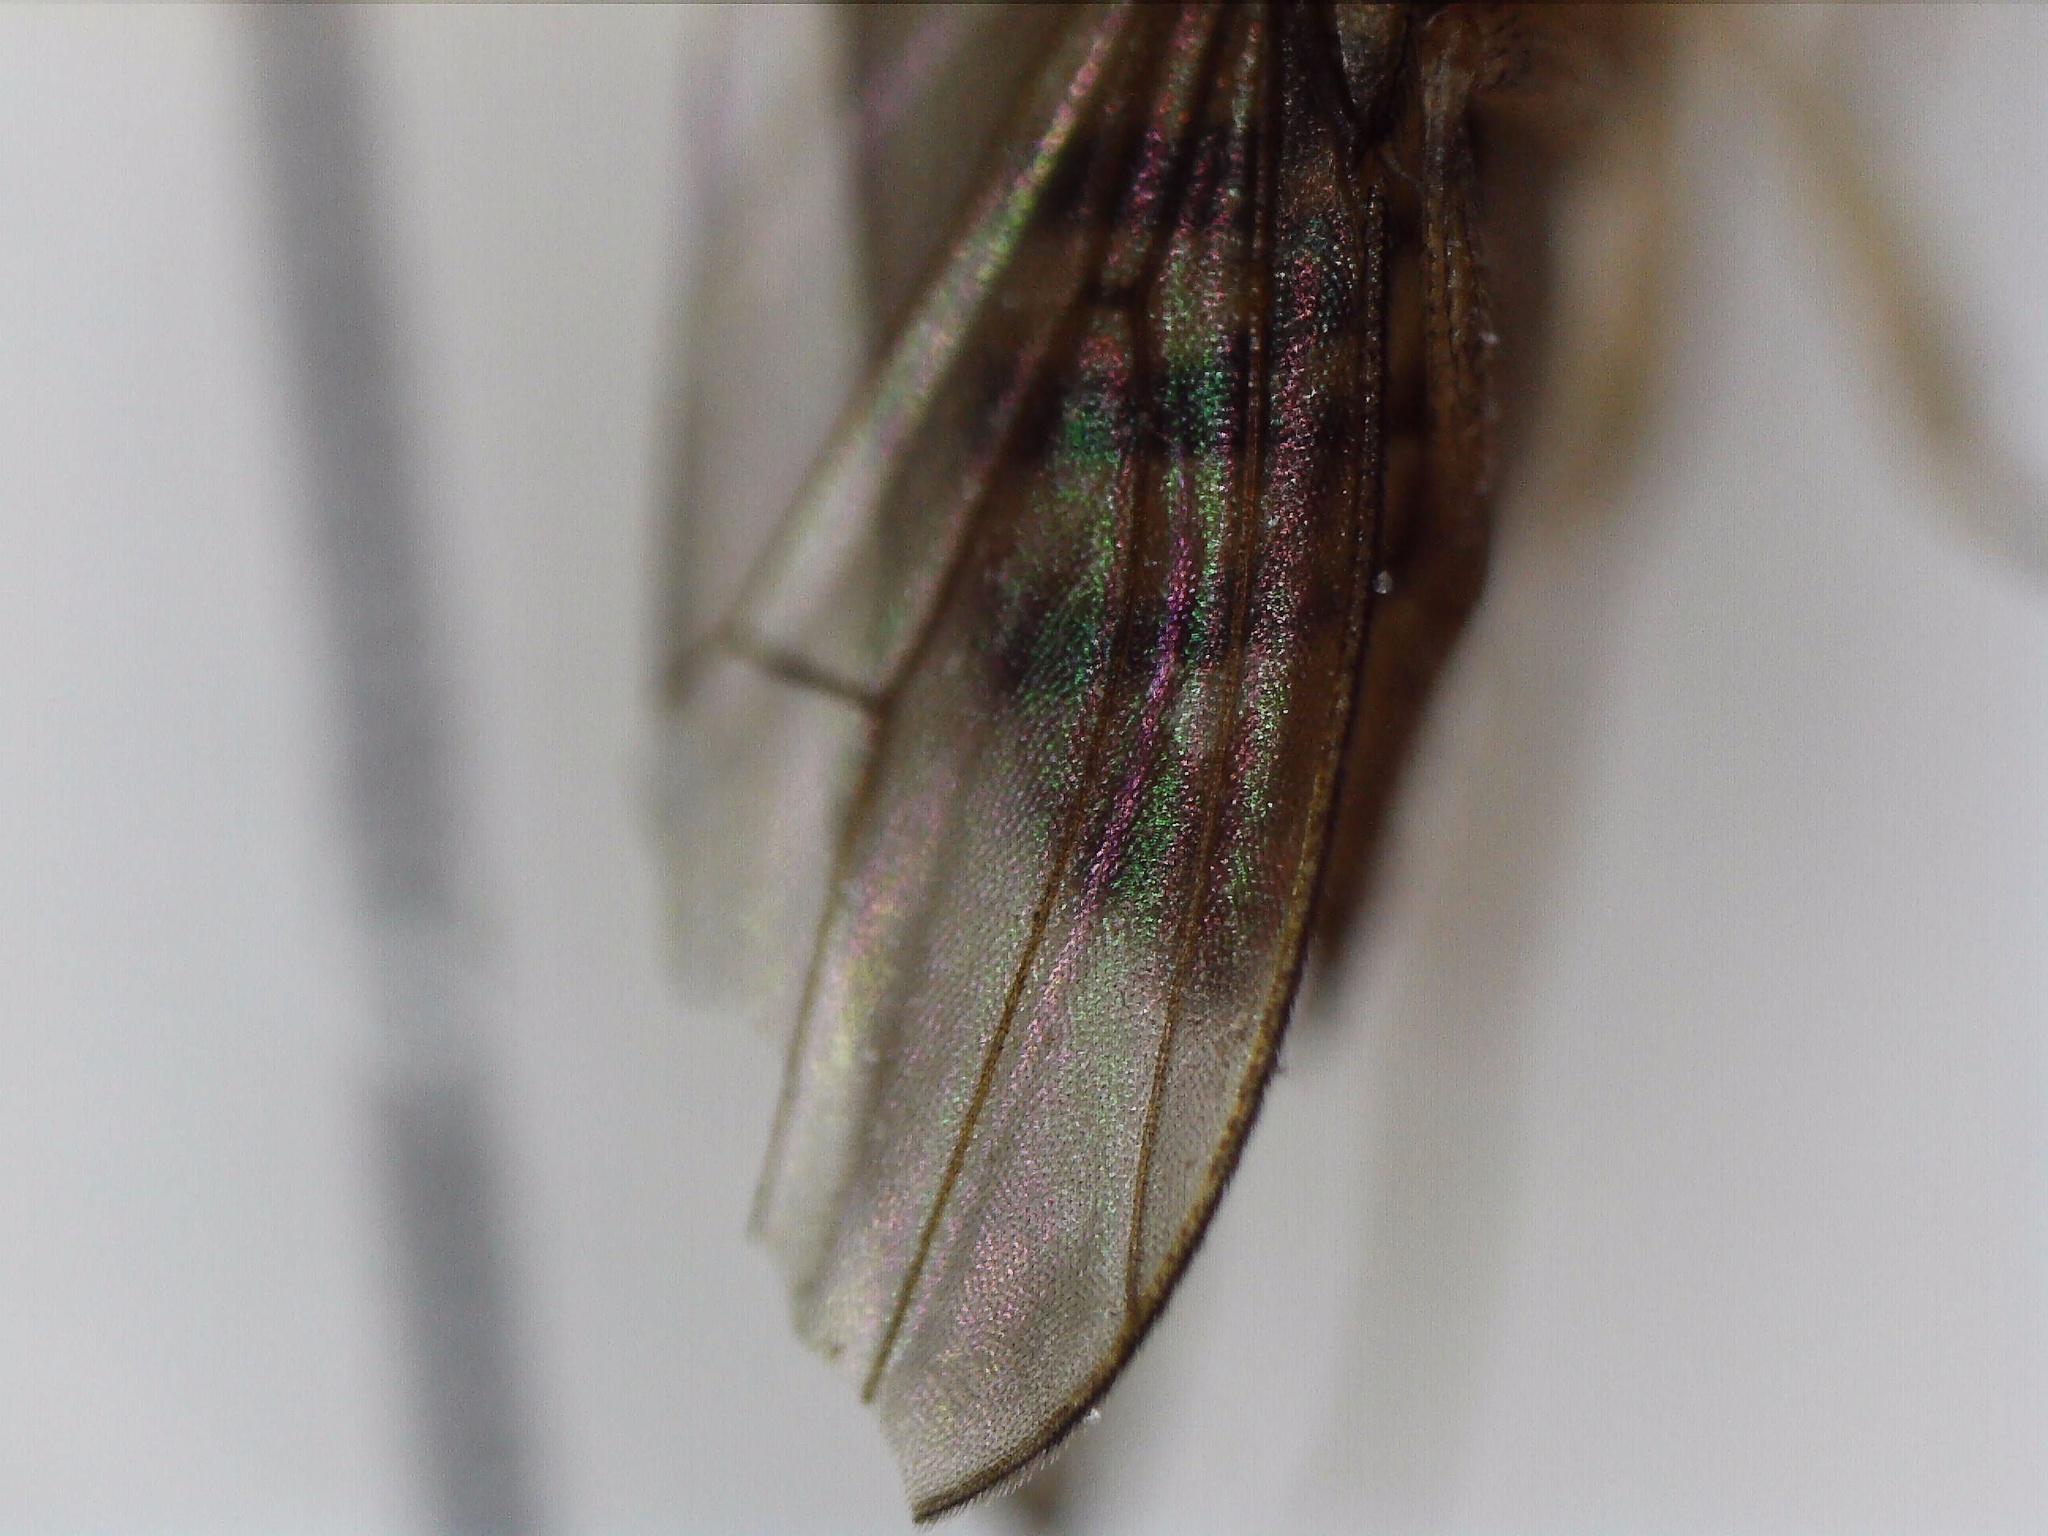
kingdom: Animalia
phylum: Arthropoda
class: Insecta
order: Diptera
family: Drosophilidae
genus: Drosophila
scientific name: Drosophila repleta
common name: Pomace fly
